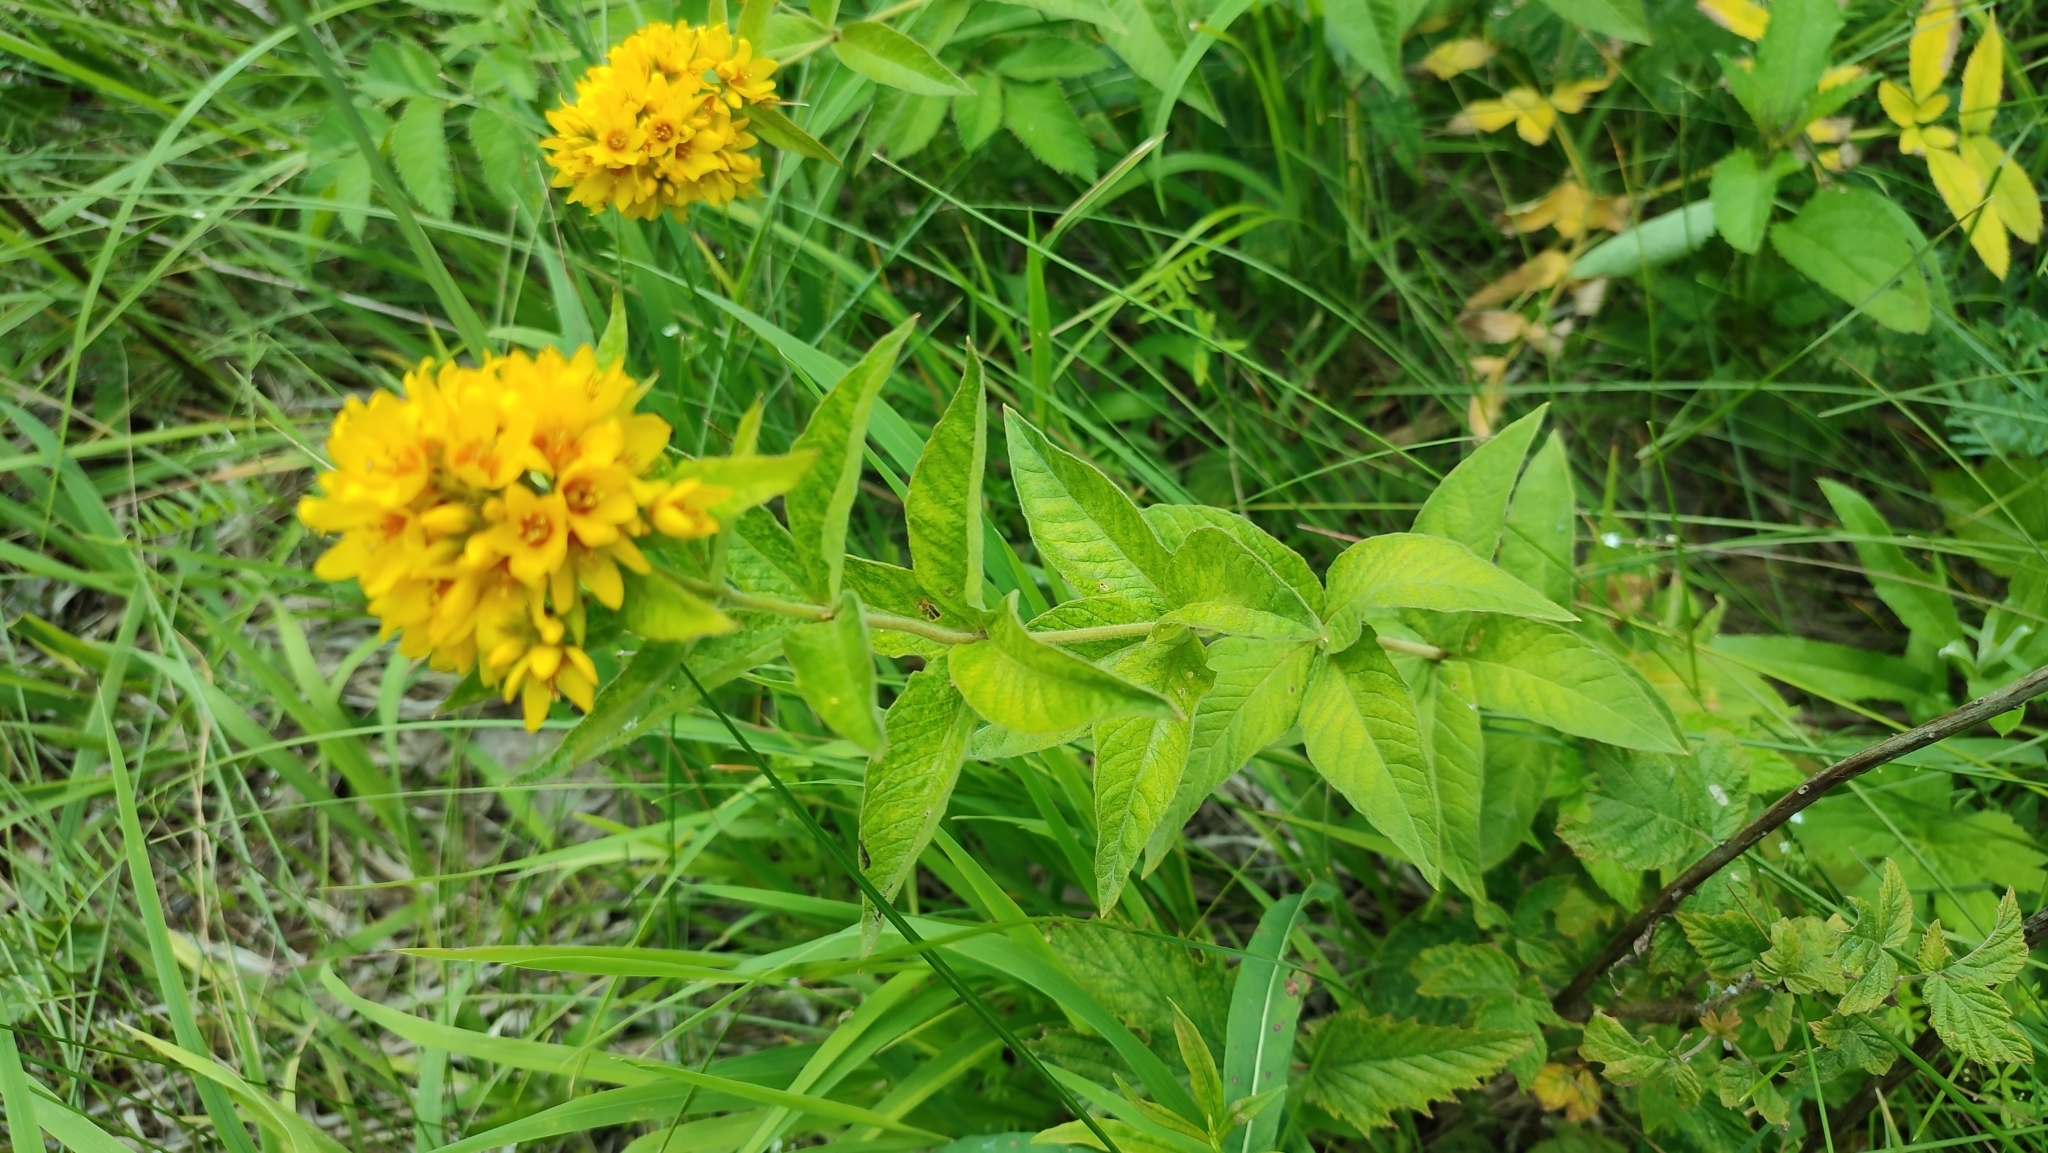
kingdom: Plantae
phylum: Tracheophyta
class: Magnoliopsida
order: Ericales
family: Primulaceae
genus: Lysimachia
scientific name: Lysimachia vulgaris
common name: Yellow loosestrife
